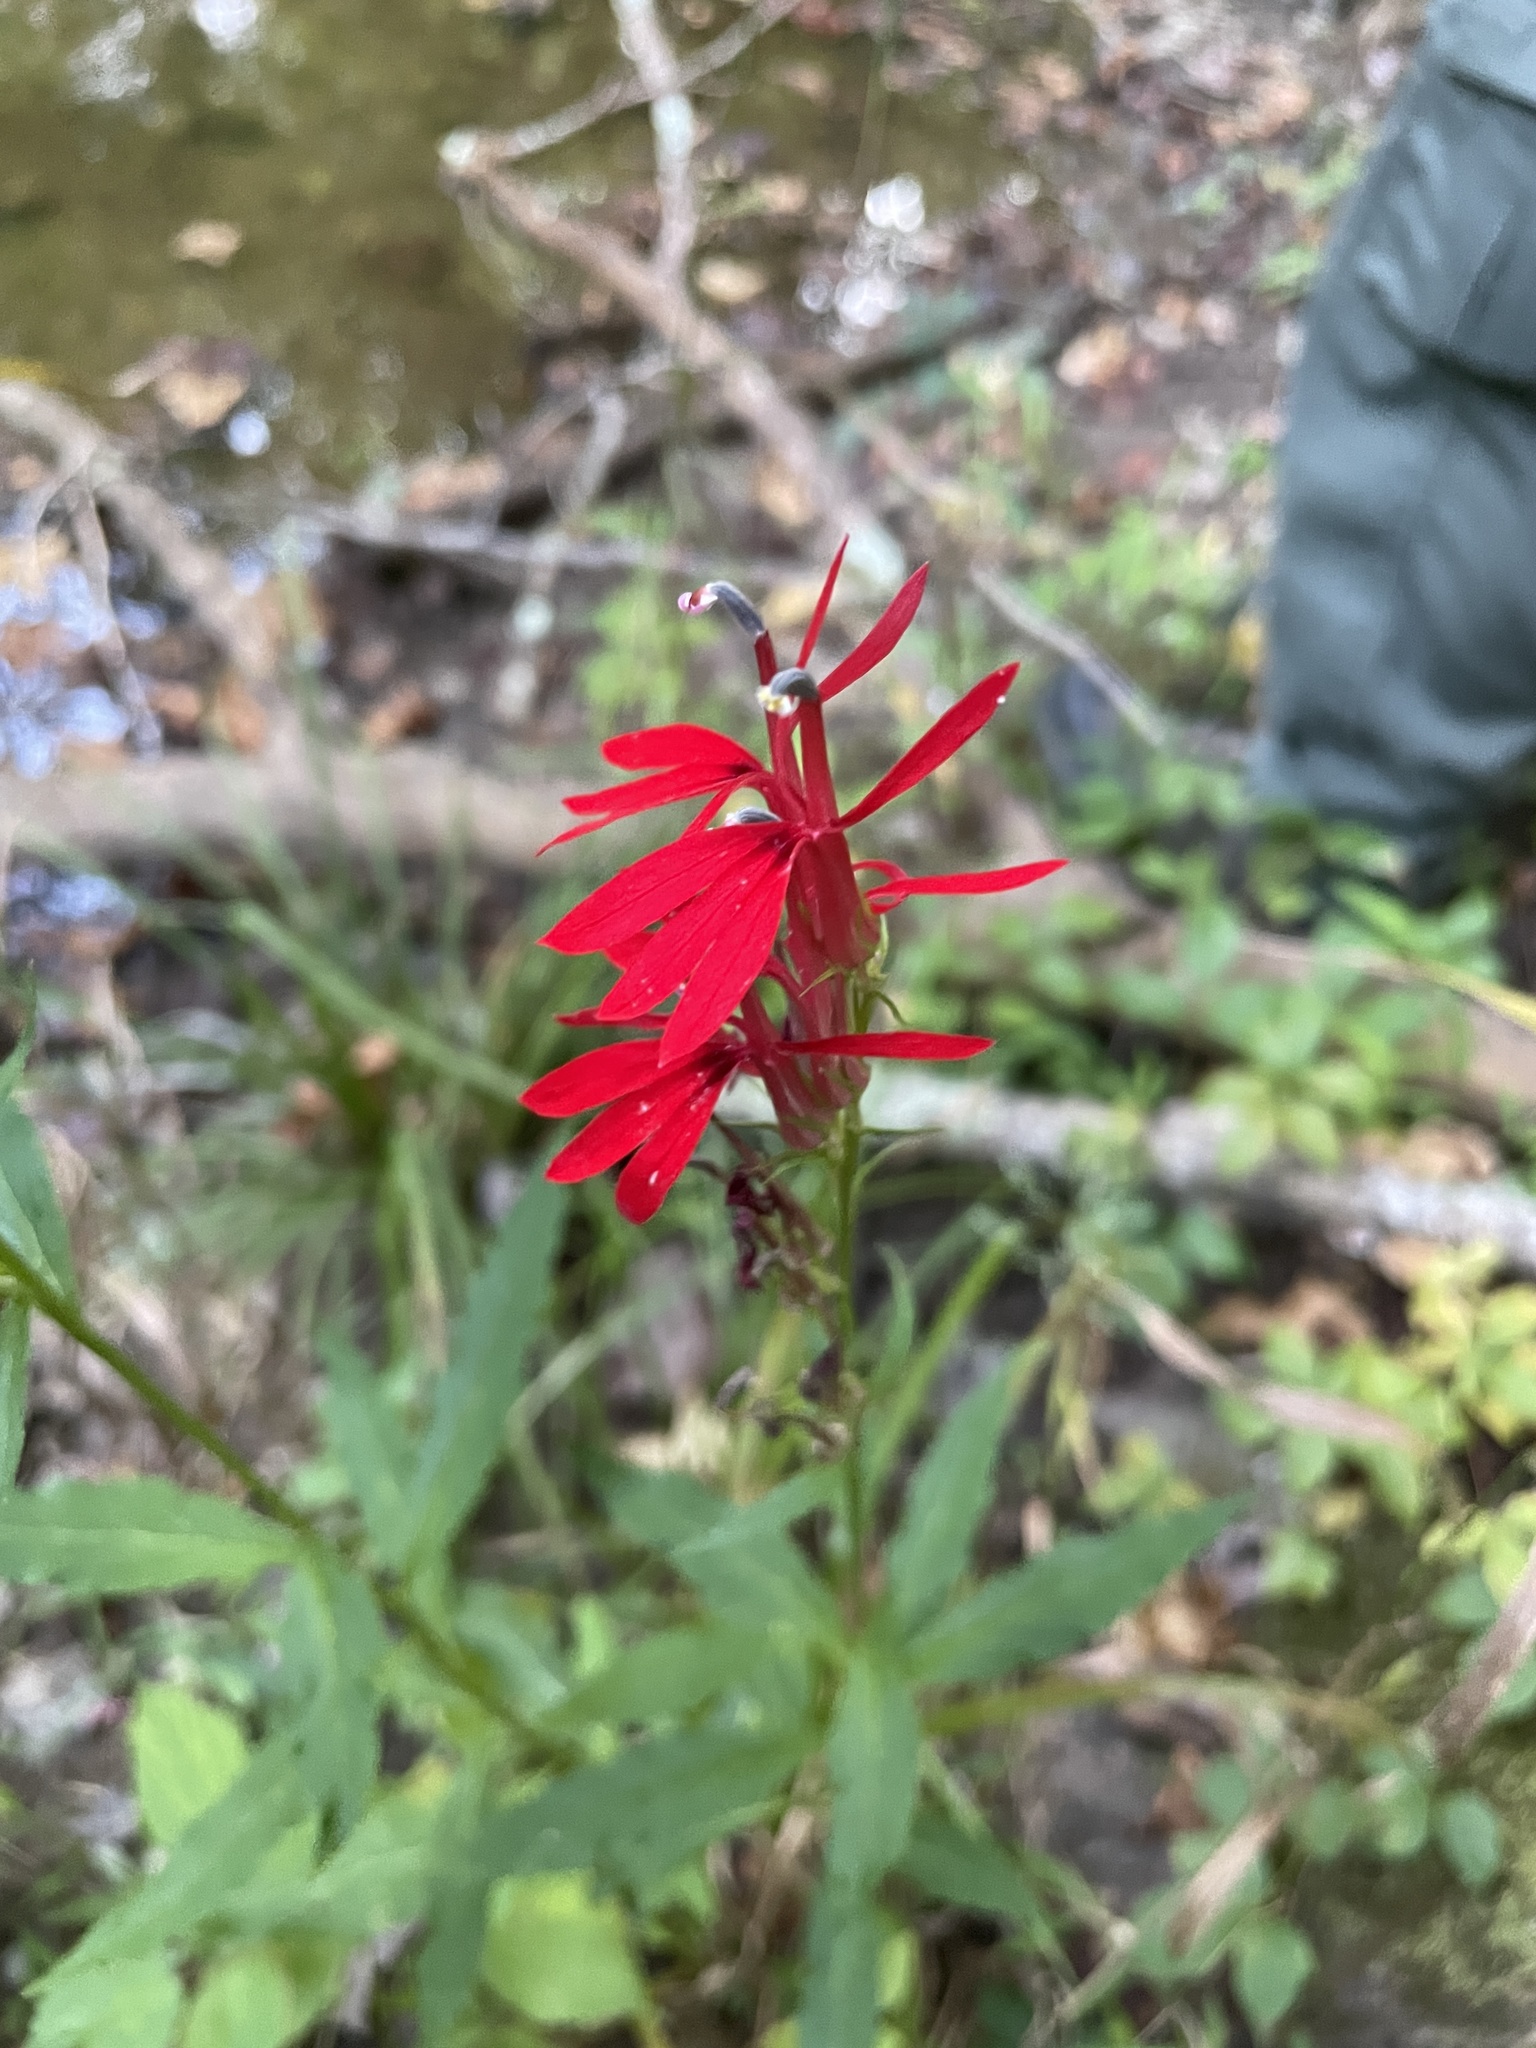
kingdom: Plantae
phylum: Tracheophyta
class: Magnoliopsida
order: Asterales
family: Campanulaceae
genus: Lobelia
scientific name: Lobelia cardinalis
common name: Cardinal flower
